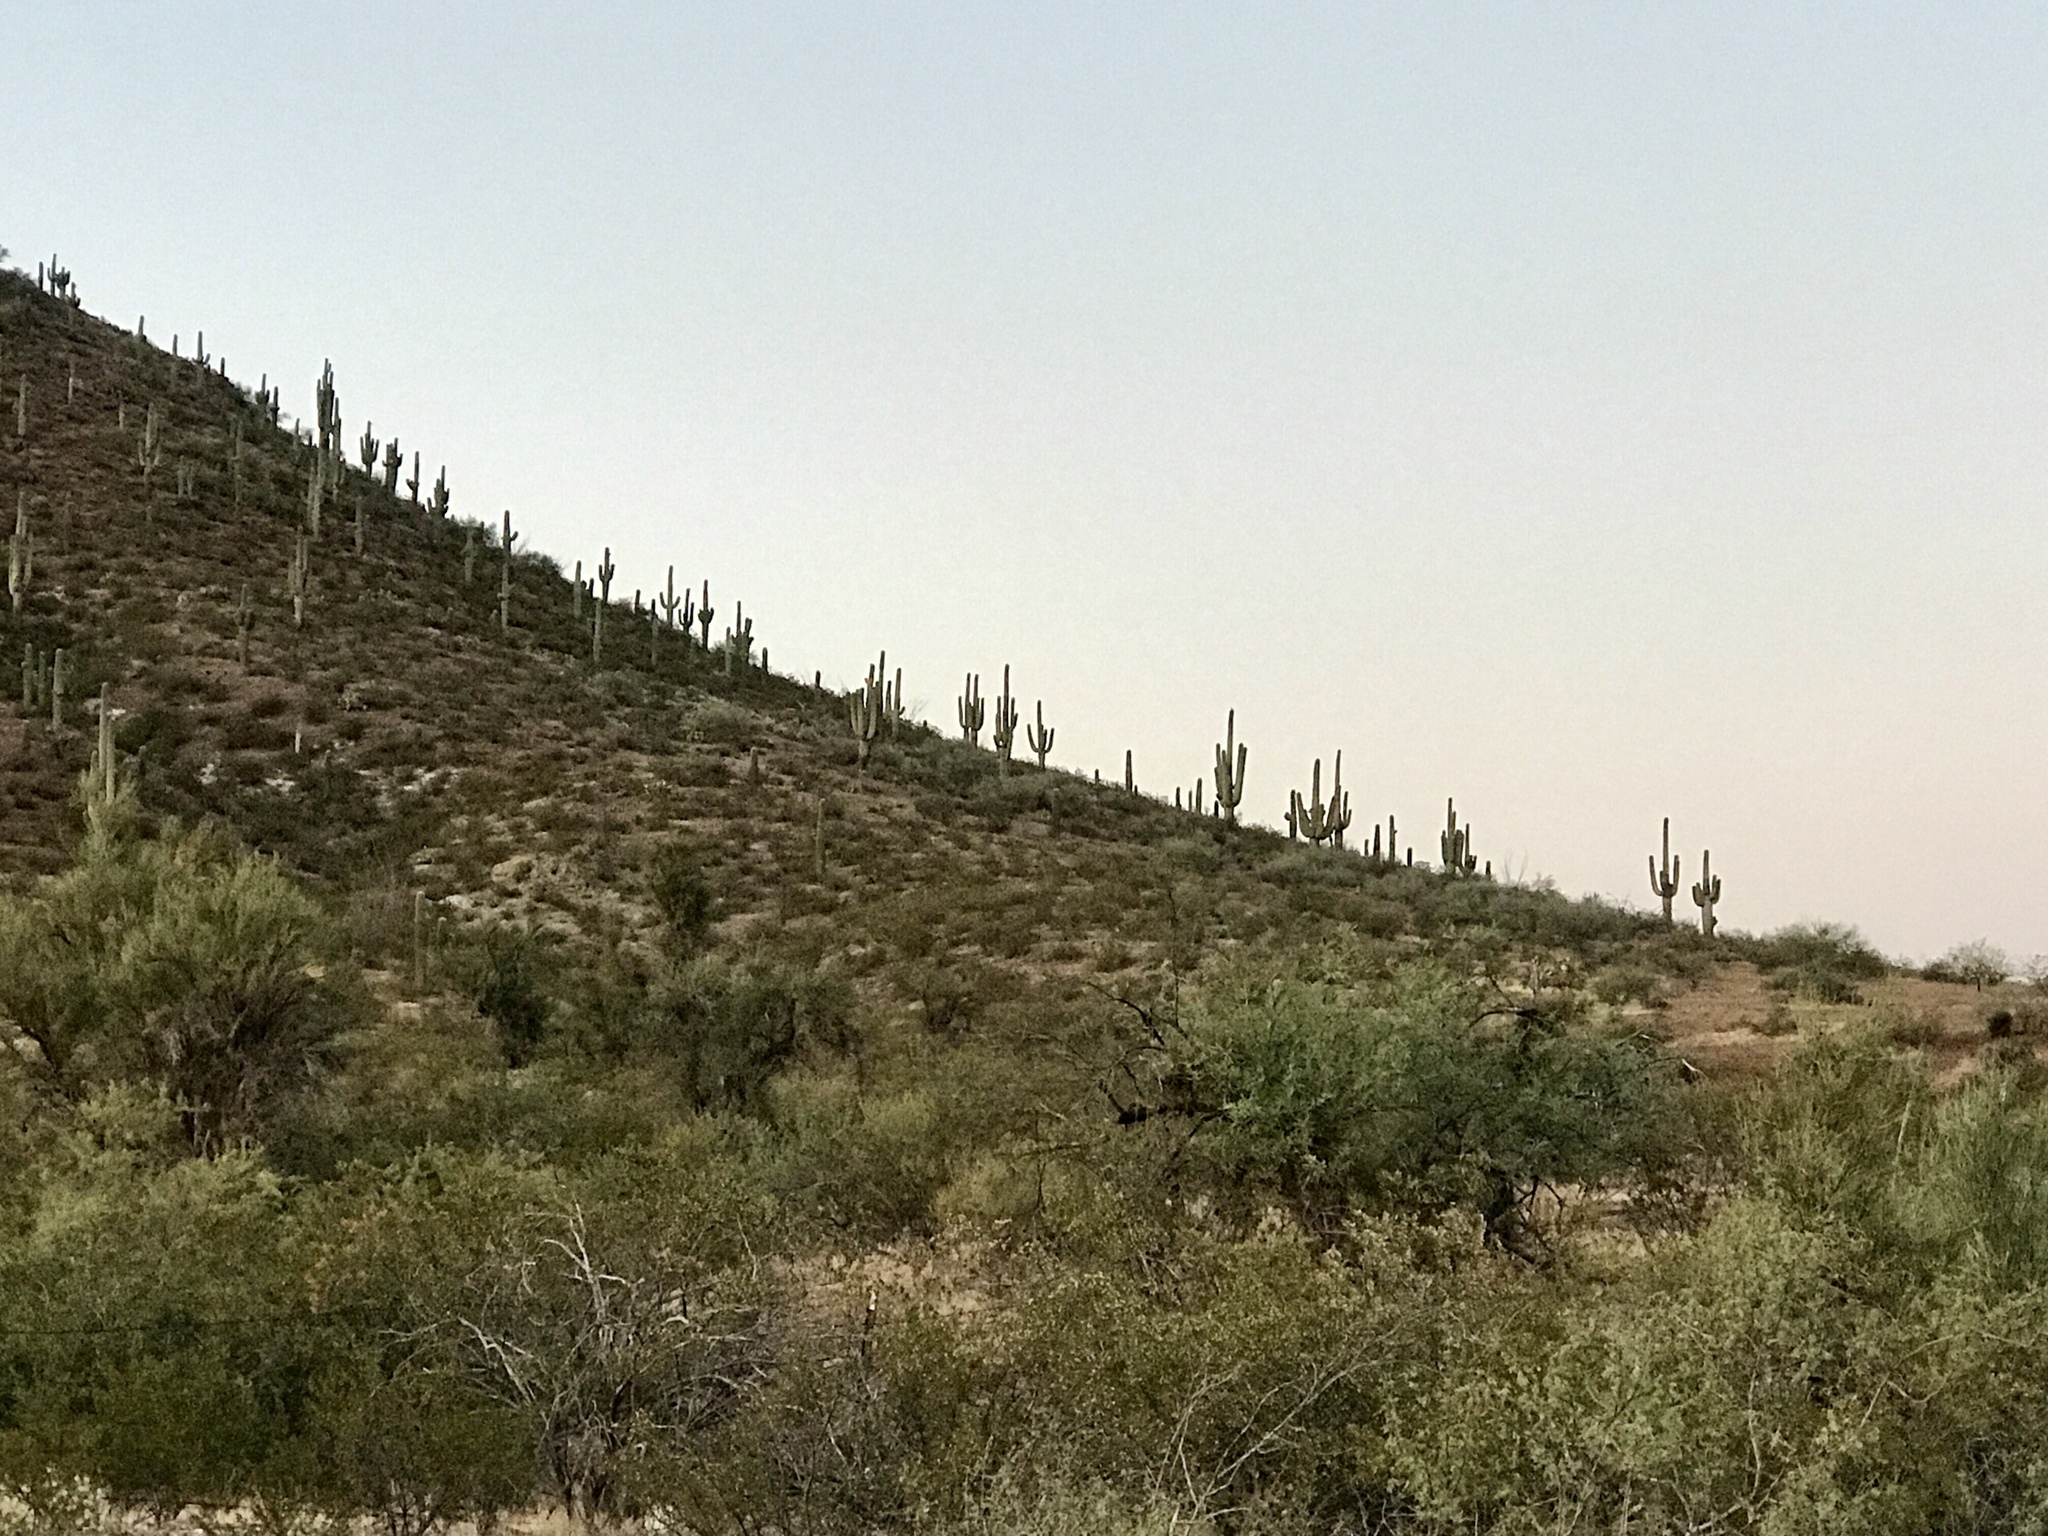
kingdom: Plantae
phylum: Tracheophyta
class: Magnoliopsida
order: Caryophyllales
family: Cactaceae
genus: Carnegiea
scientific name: Carnegiea gigantea
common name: Saguaro
